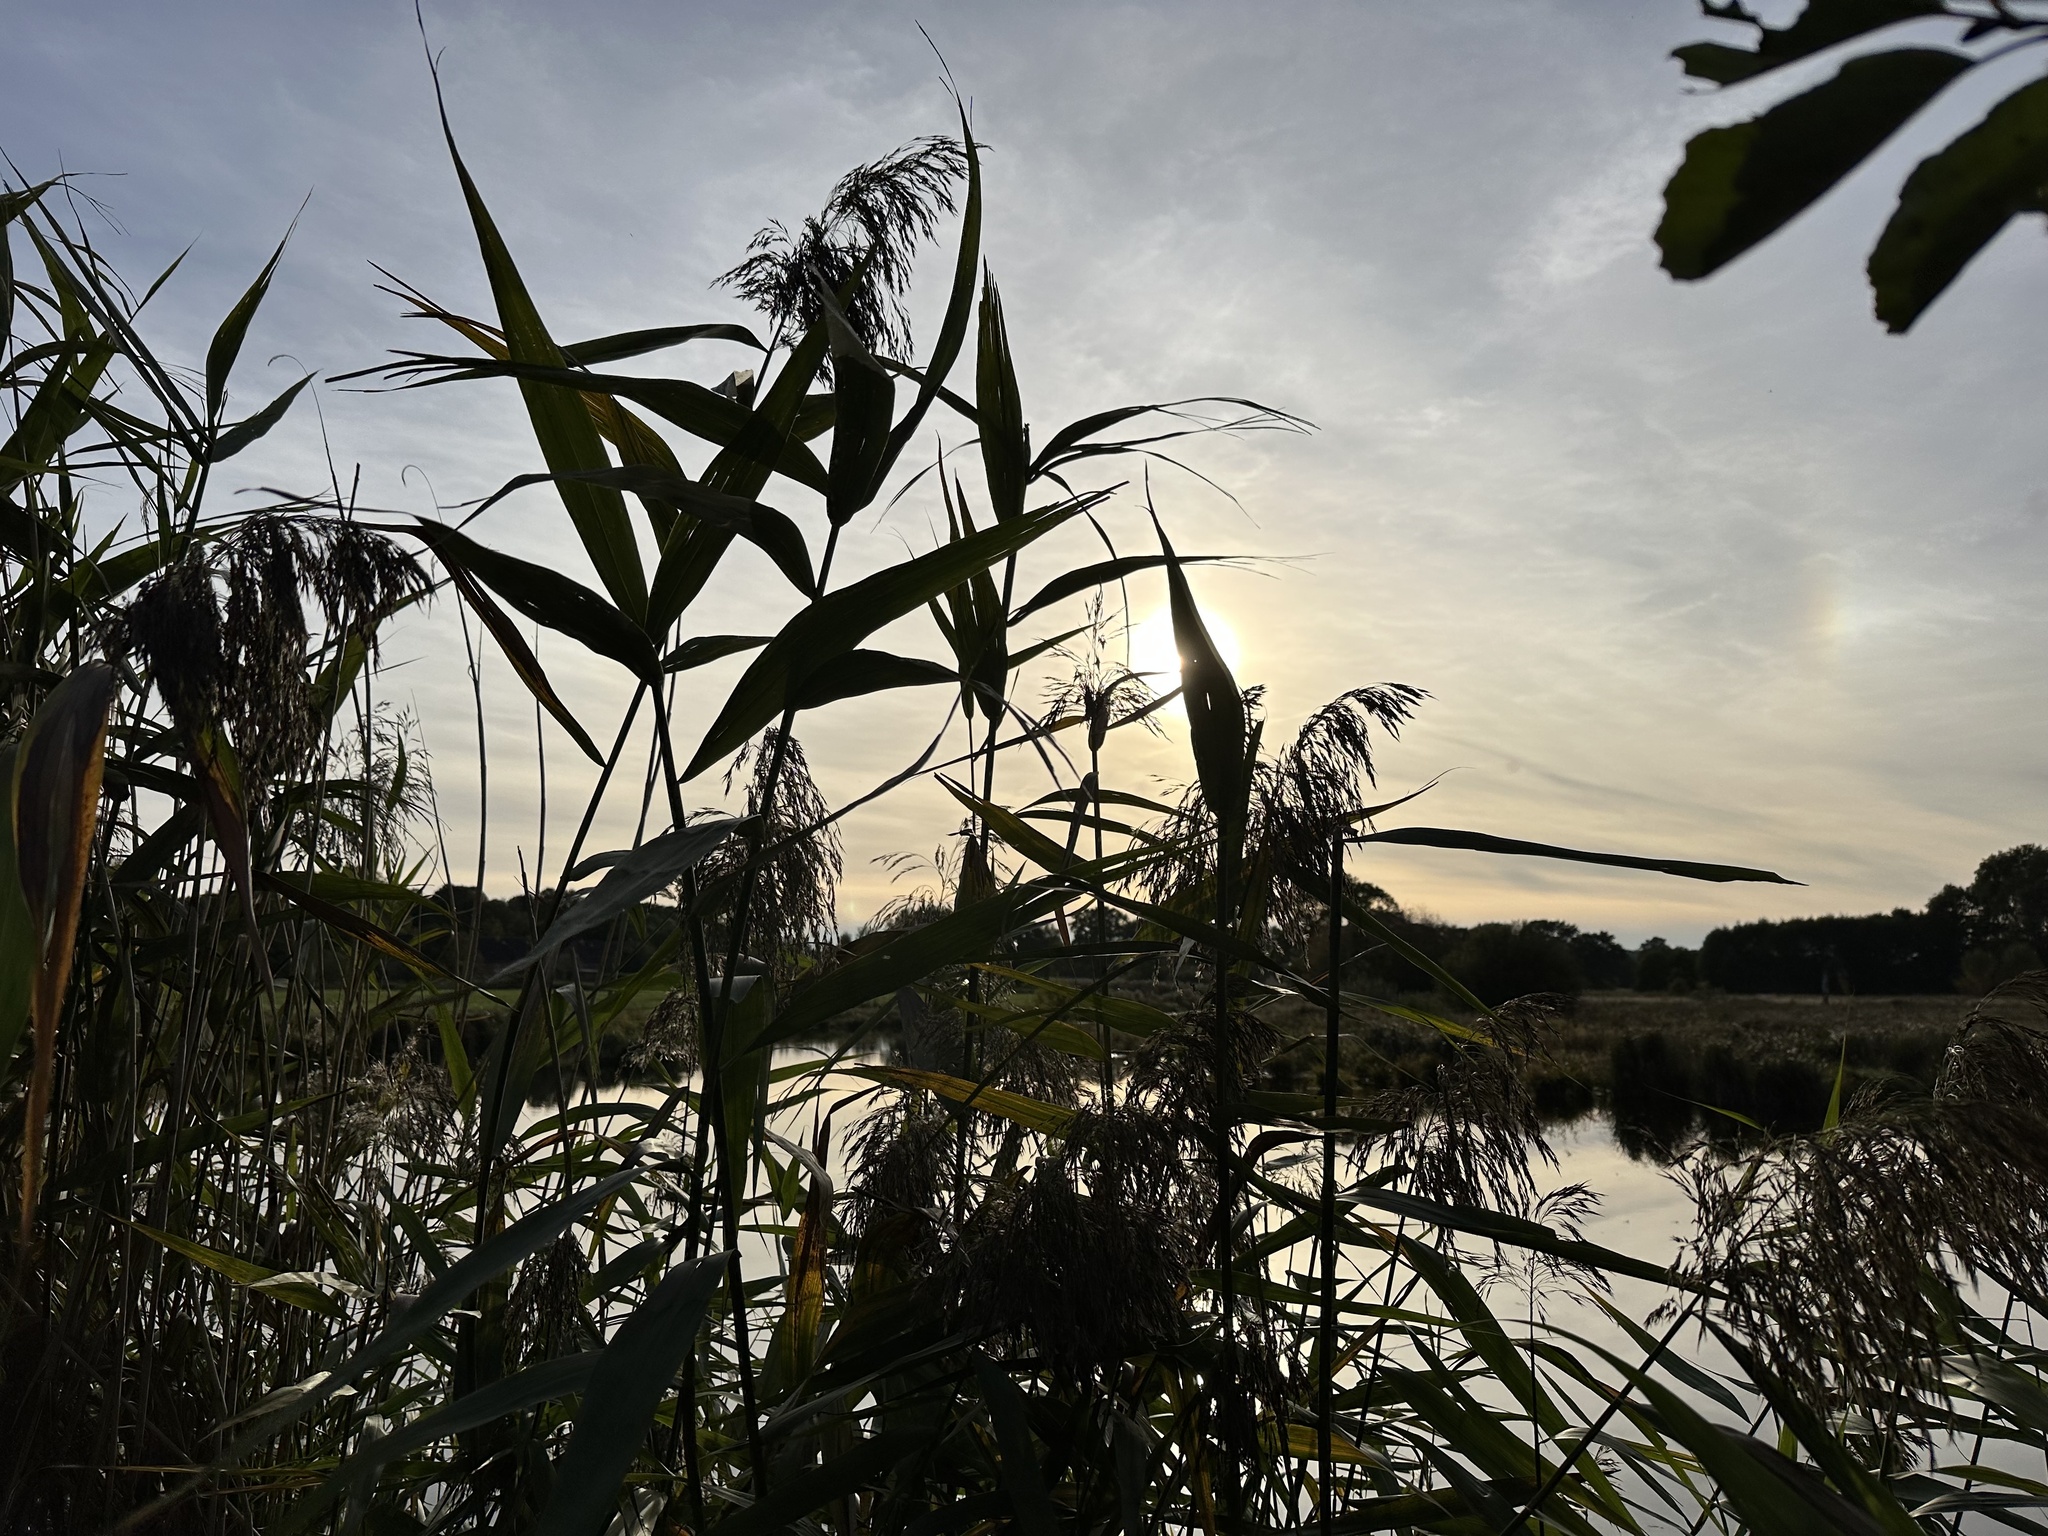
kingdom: Plantae
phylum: Tracheophyta
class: Liliopsida
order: Poales
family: Poaceae
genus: Phragmites
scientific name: Phragmites australis
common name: Common reed
